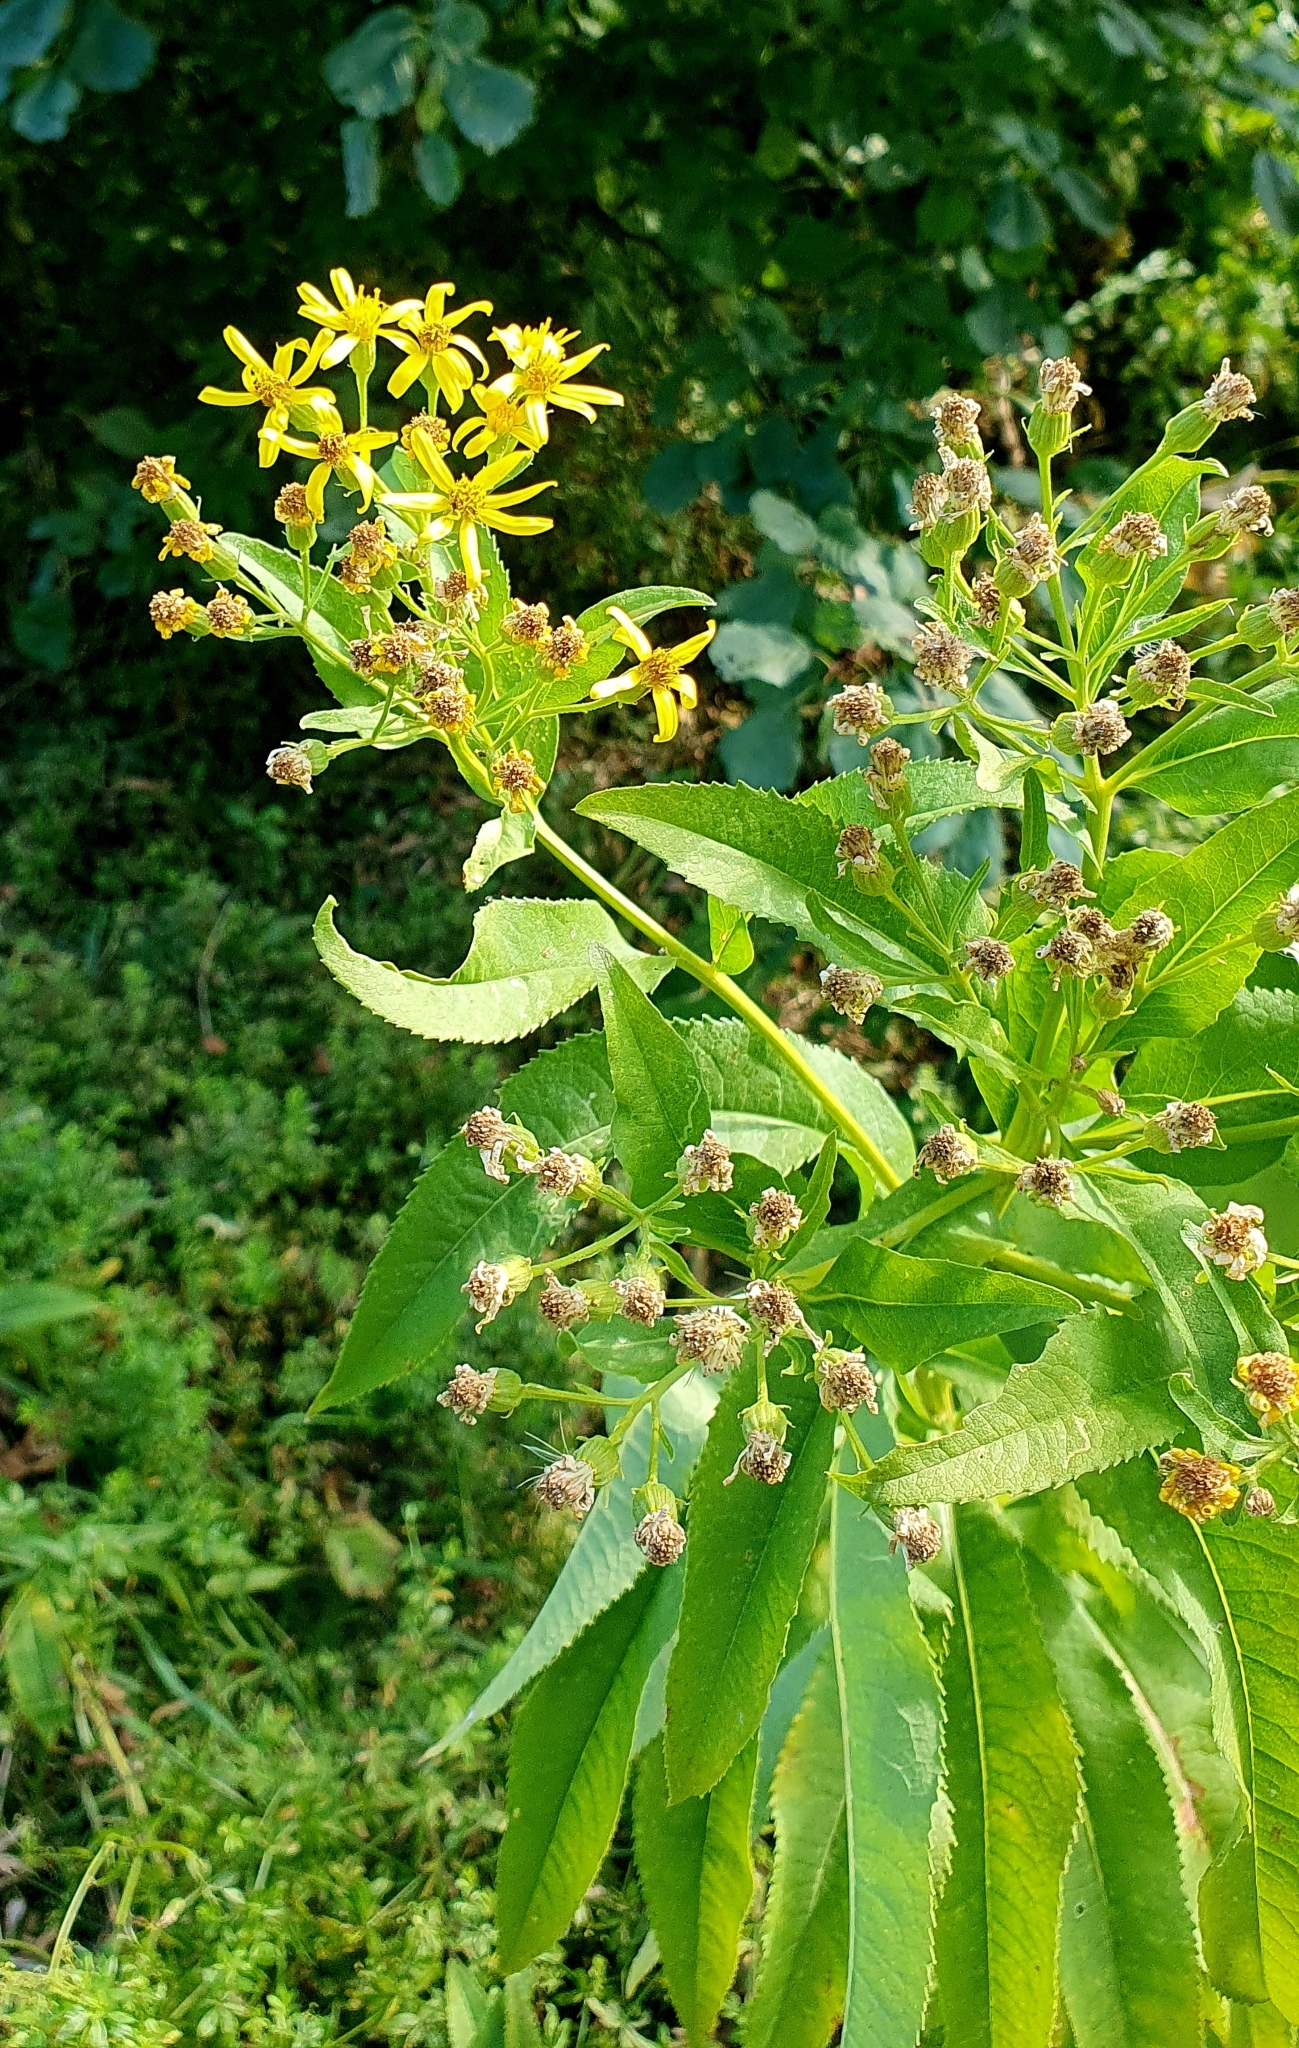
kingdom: Plantae
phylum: Tracheophyta
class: Magnoliopsida
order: Asterales
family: Asteraceae
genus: Senecio
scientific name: Senecio sarracenicus
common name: Broad-leaved ragwort
